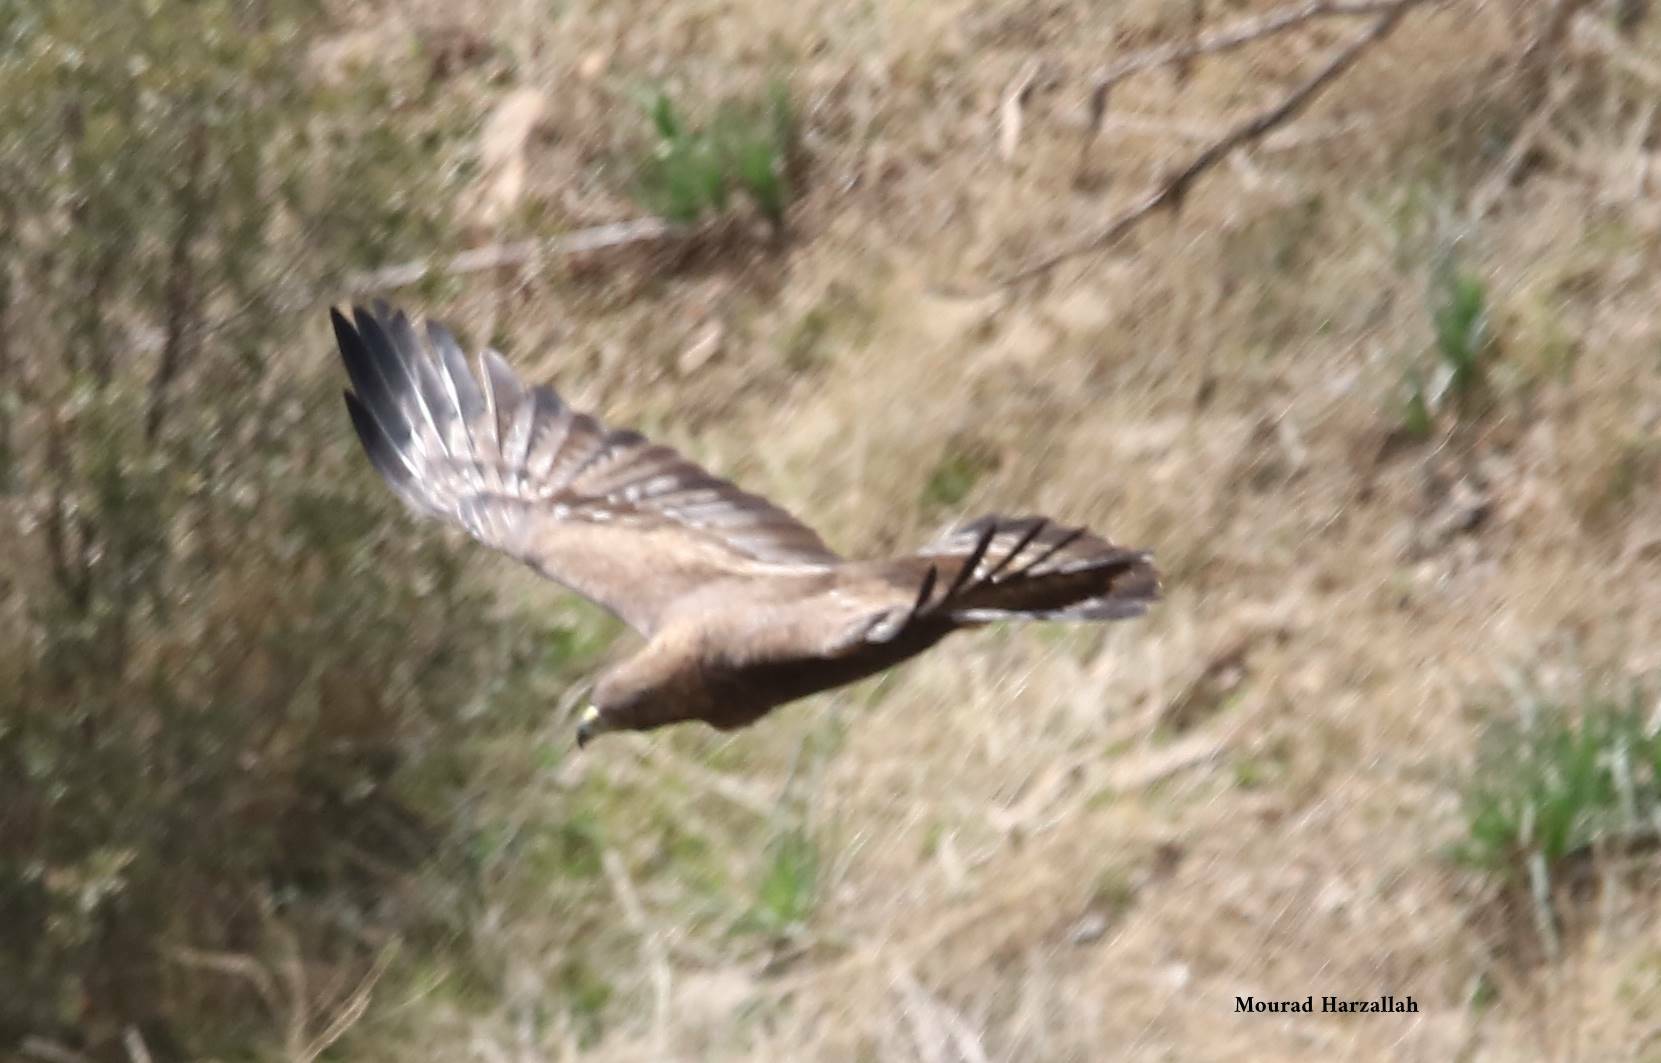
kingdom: Animalia
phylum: Chordata
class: Aves
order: Accipitriformes
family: Accipitridae
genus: Aquila
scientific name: Aquila chrysaetos
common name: Golden eagle
